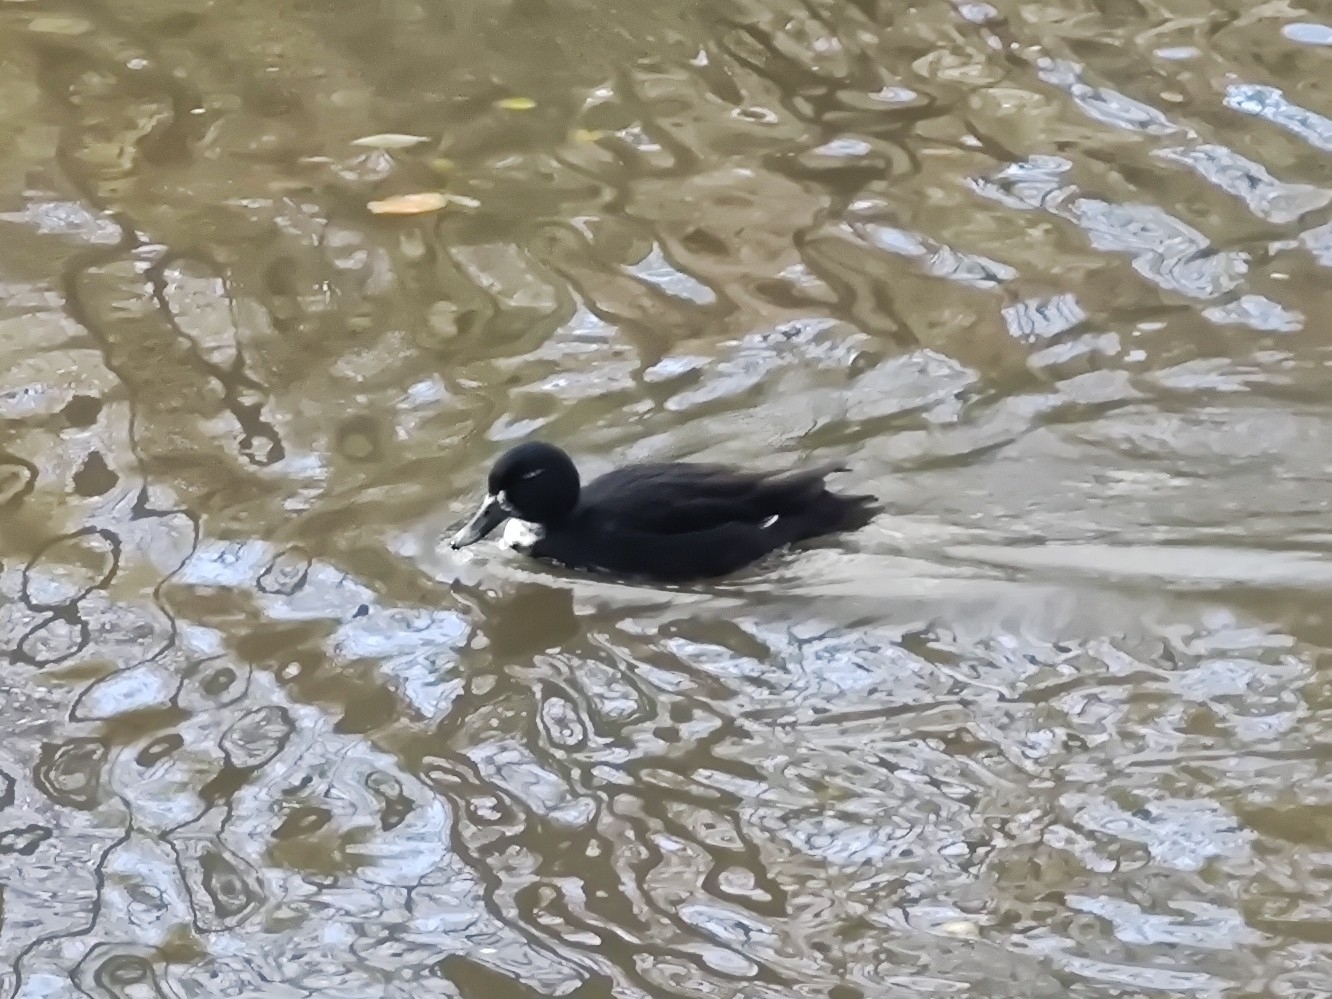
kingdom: Animalia
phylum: Chordata
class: Aves
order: Anseriformes
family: Anatidae
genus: Anas
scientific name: Anas platyrhynchos
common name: Mallard
